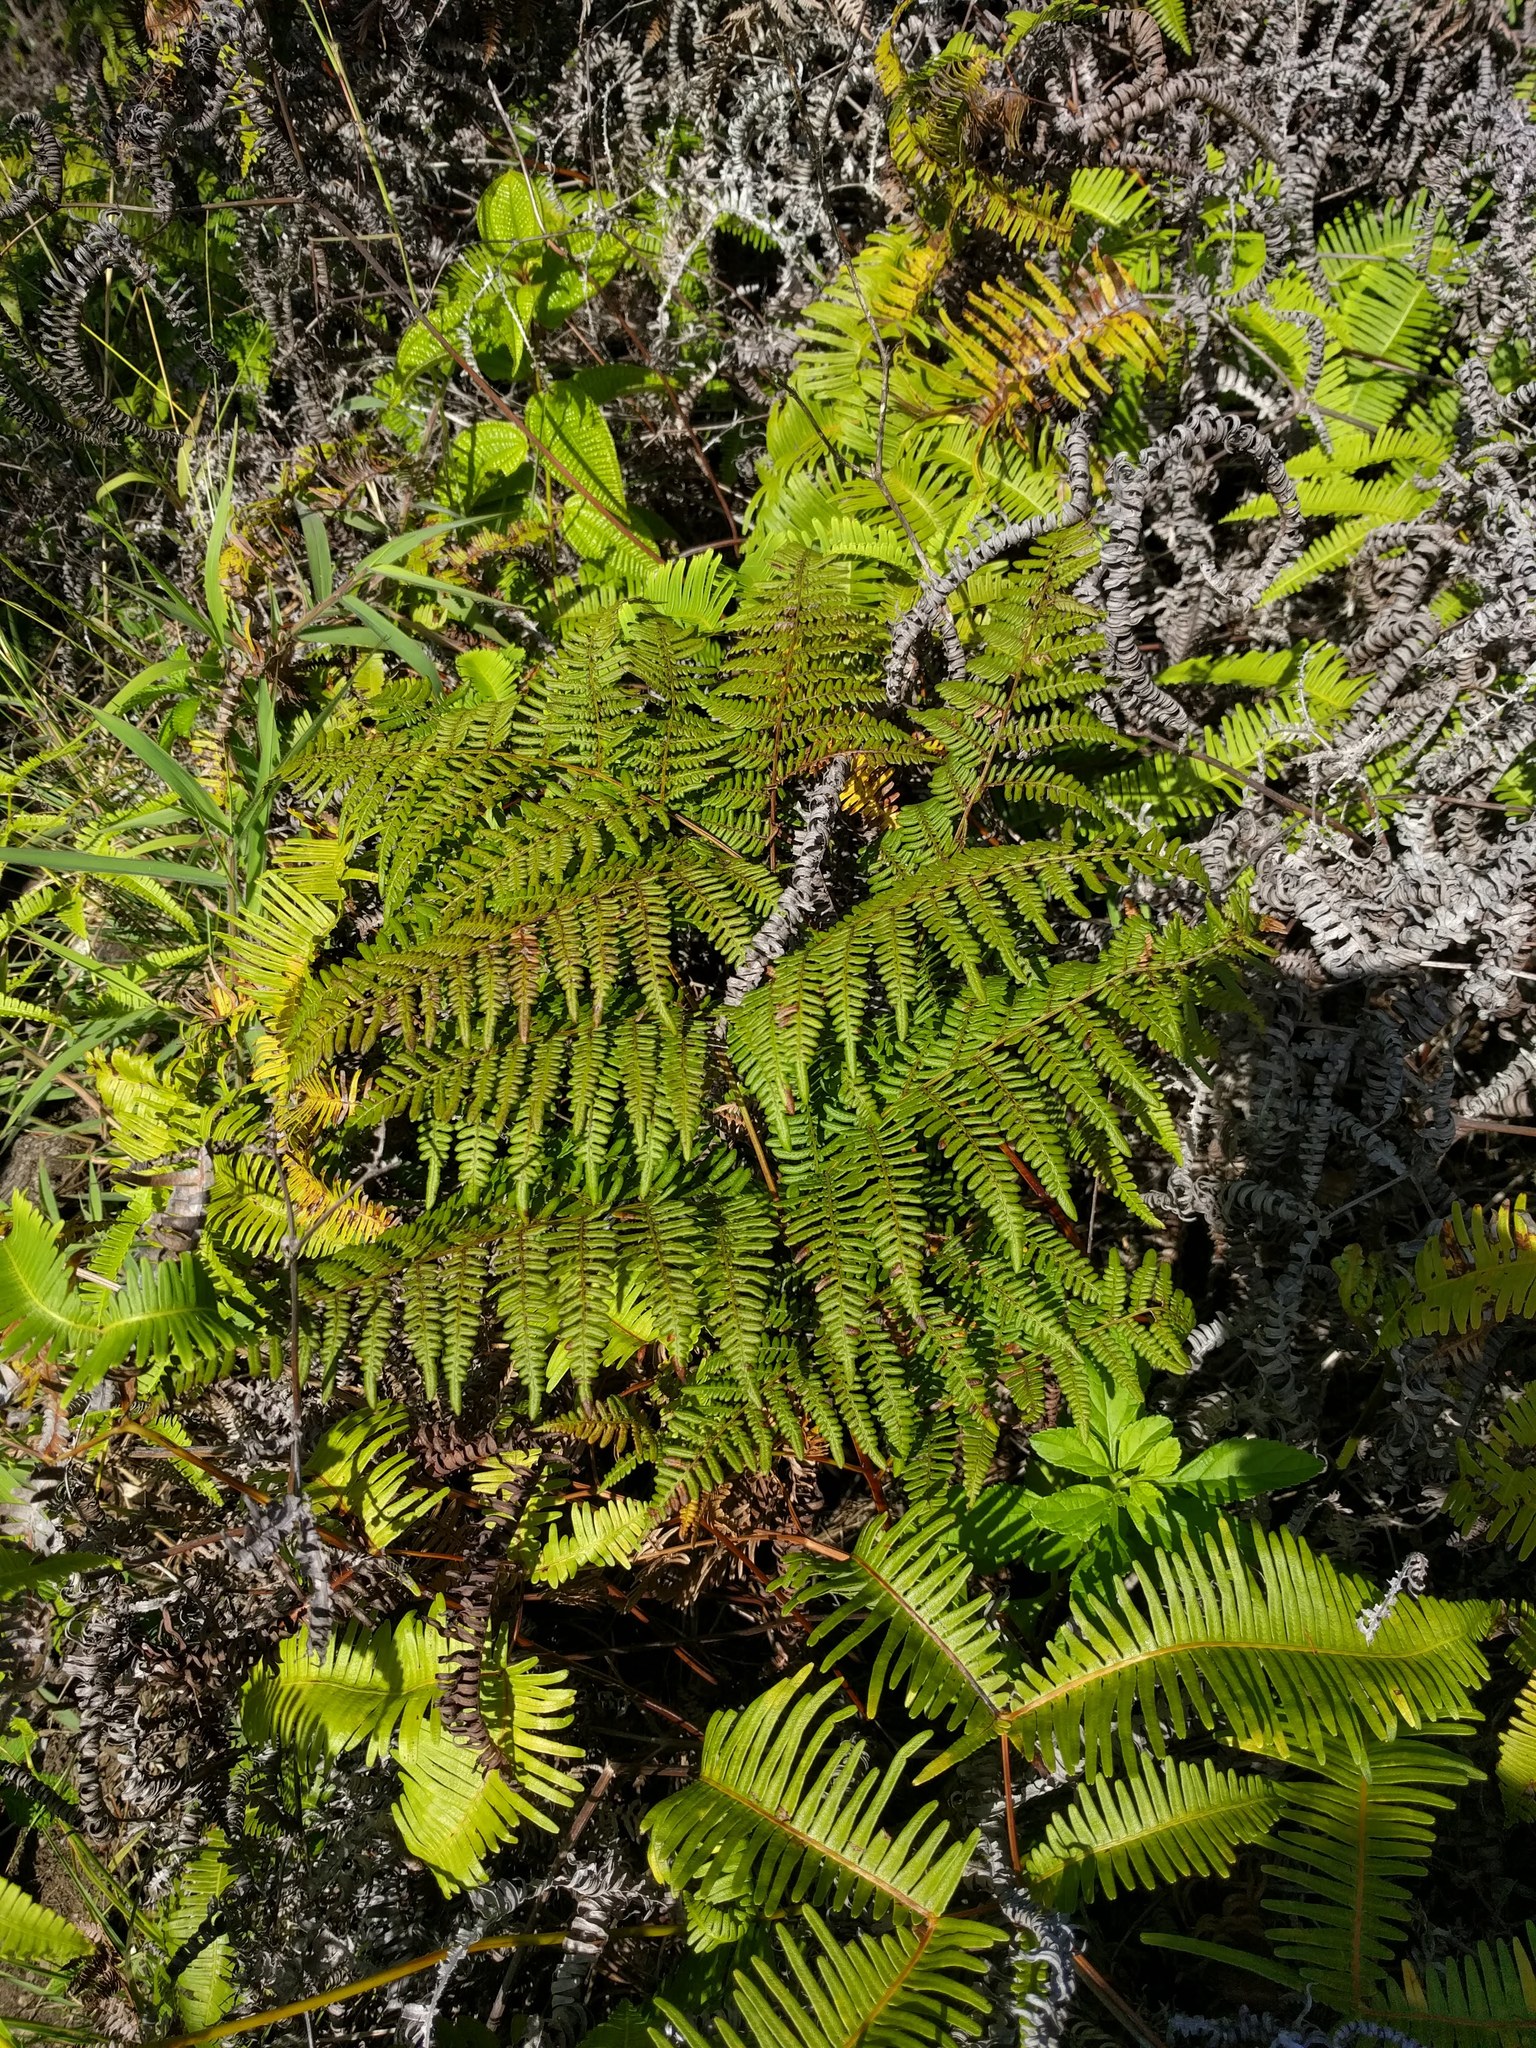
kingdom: Plantae
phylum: Tracheophyta
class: Polypodiopsida
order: Polypodiales
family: Dennstaedtiaceae
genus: Pteridium
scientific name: Pteridium aquilinum
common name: Bracken
